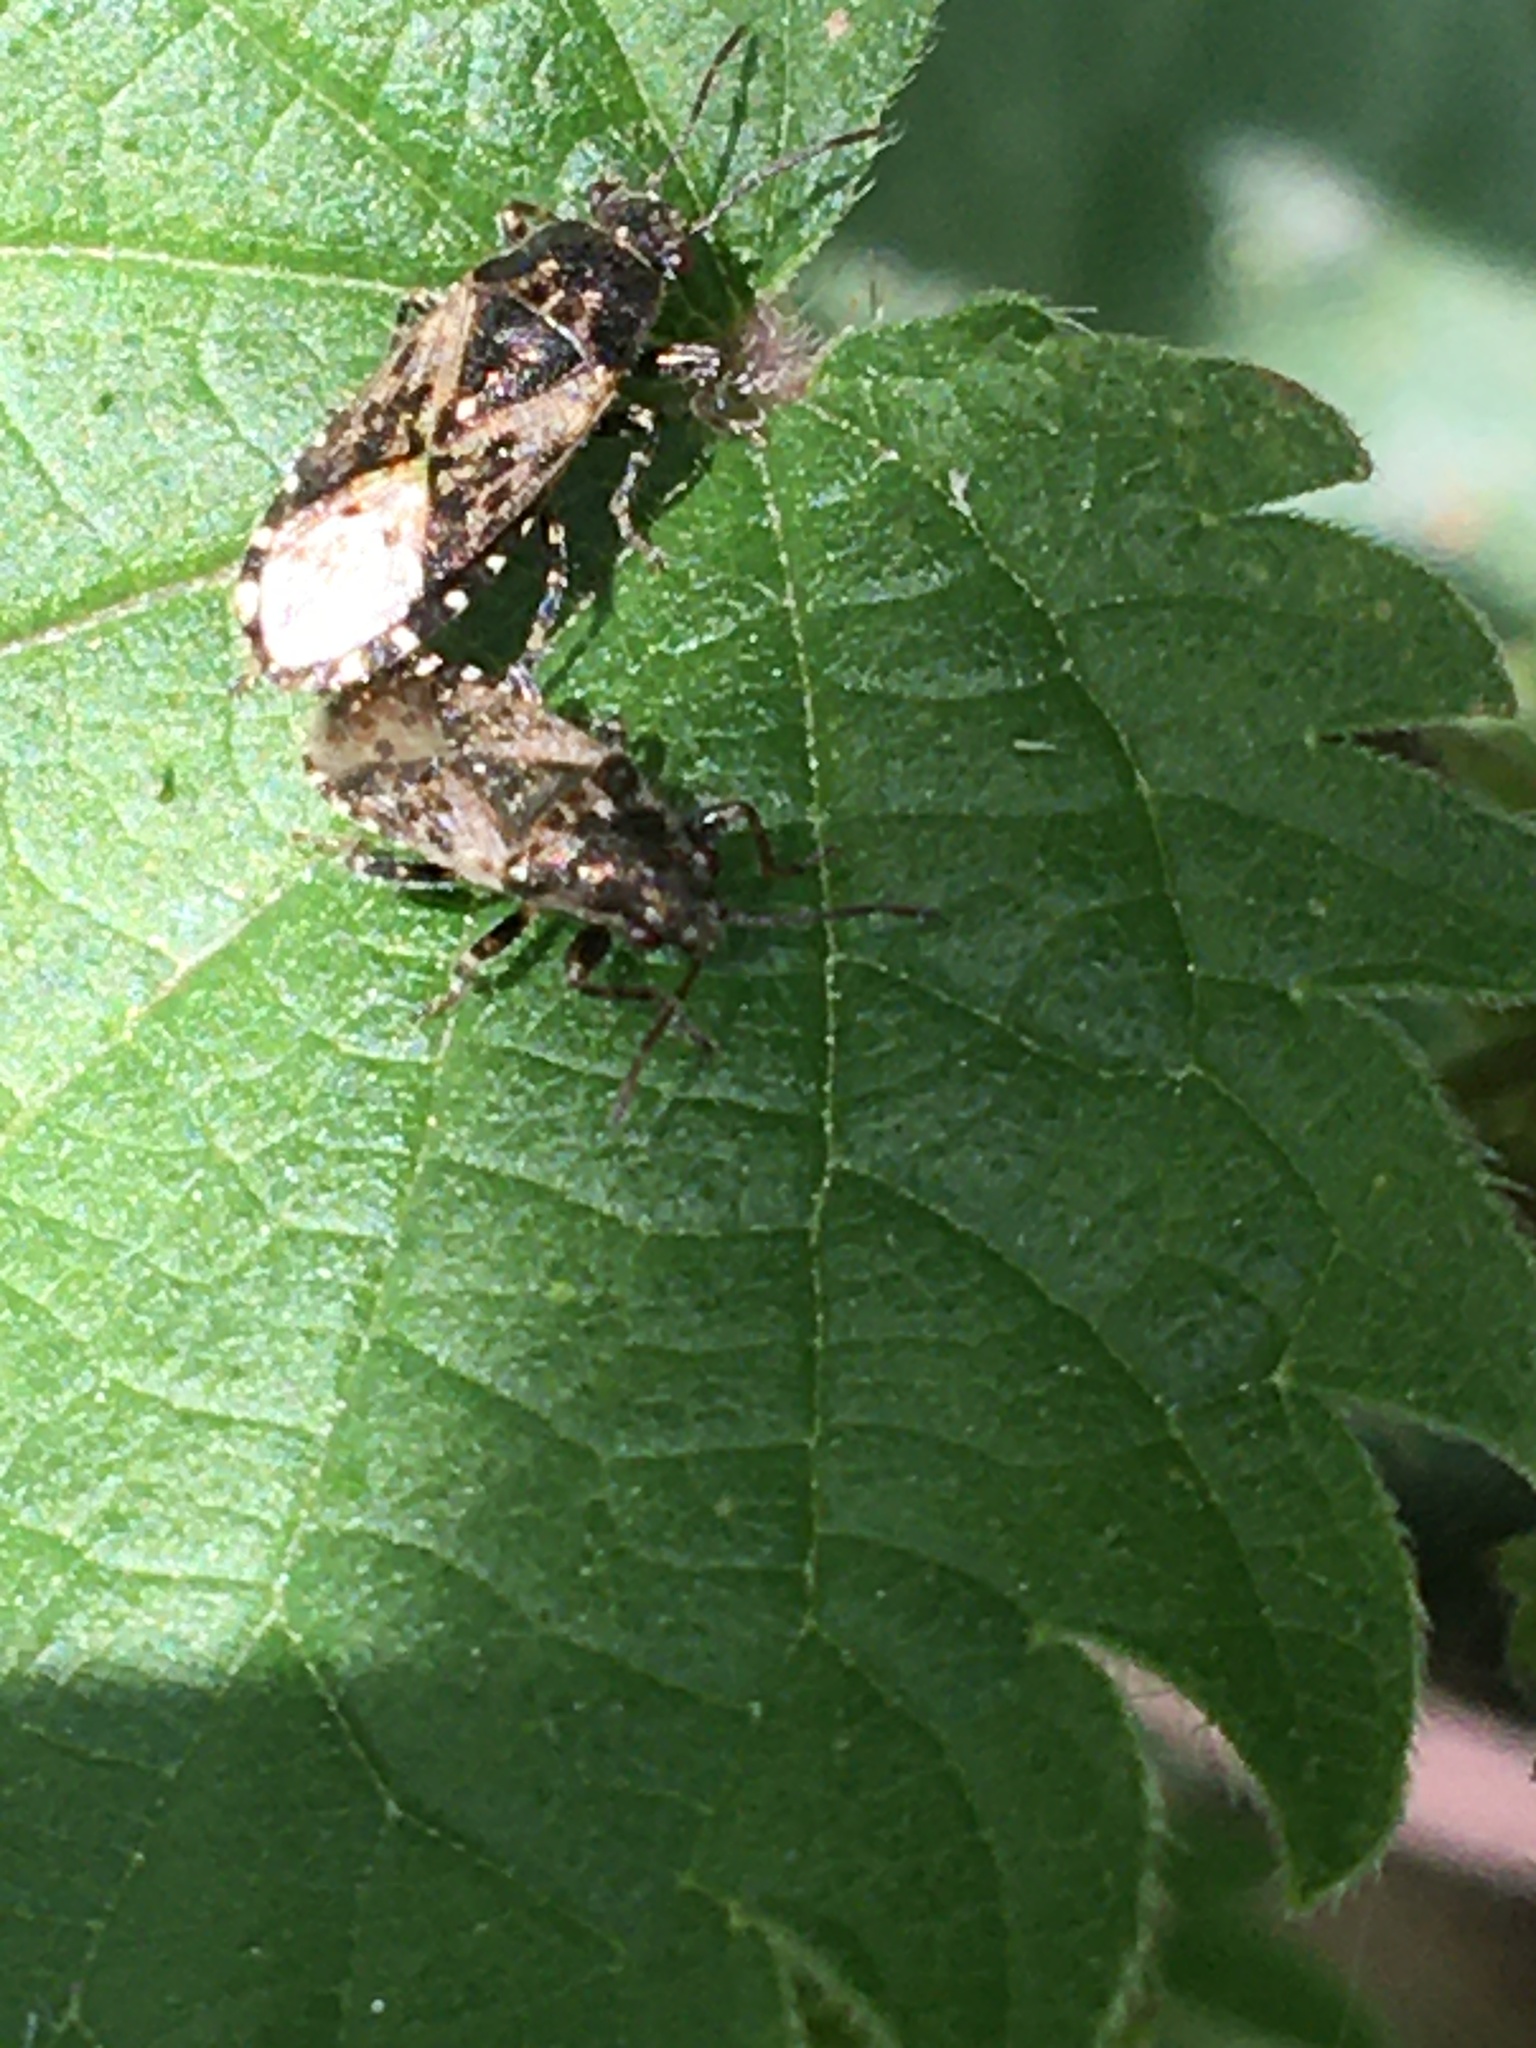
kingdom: Animalia
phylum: Arthropoda
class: Insecta
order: Hemiptera
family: Heterogastridae
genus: Heterogaster
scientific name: Heterogaster urticae
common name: Seed bug
